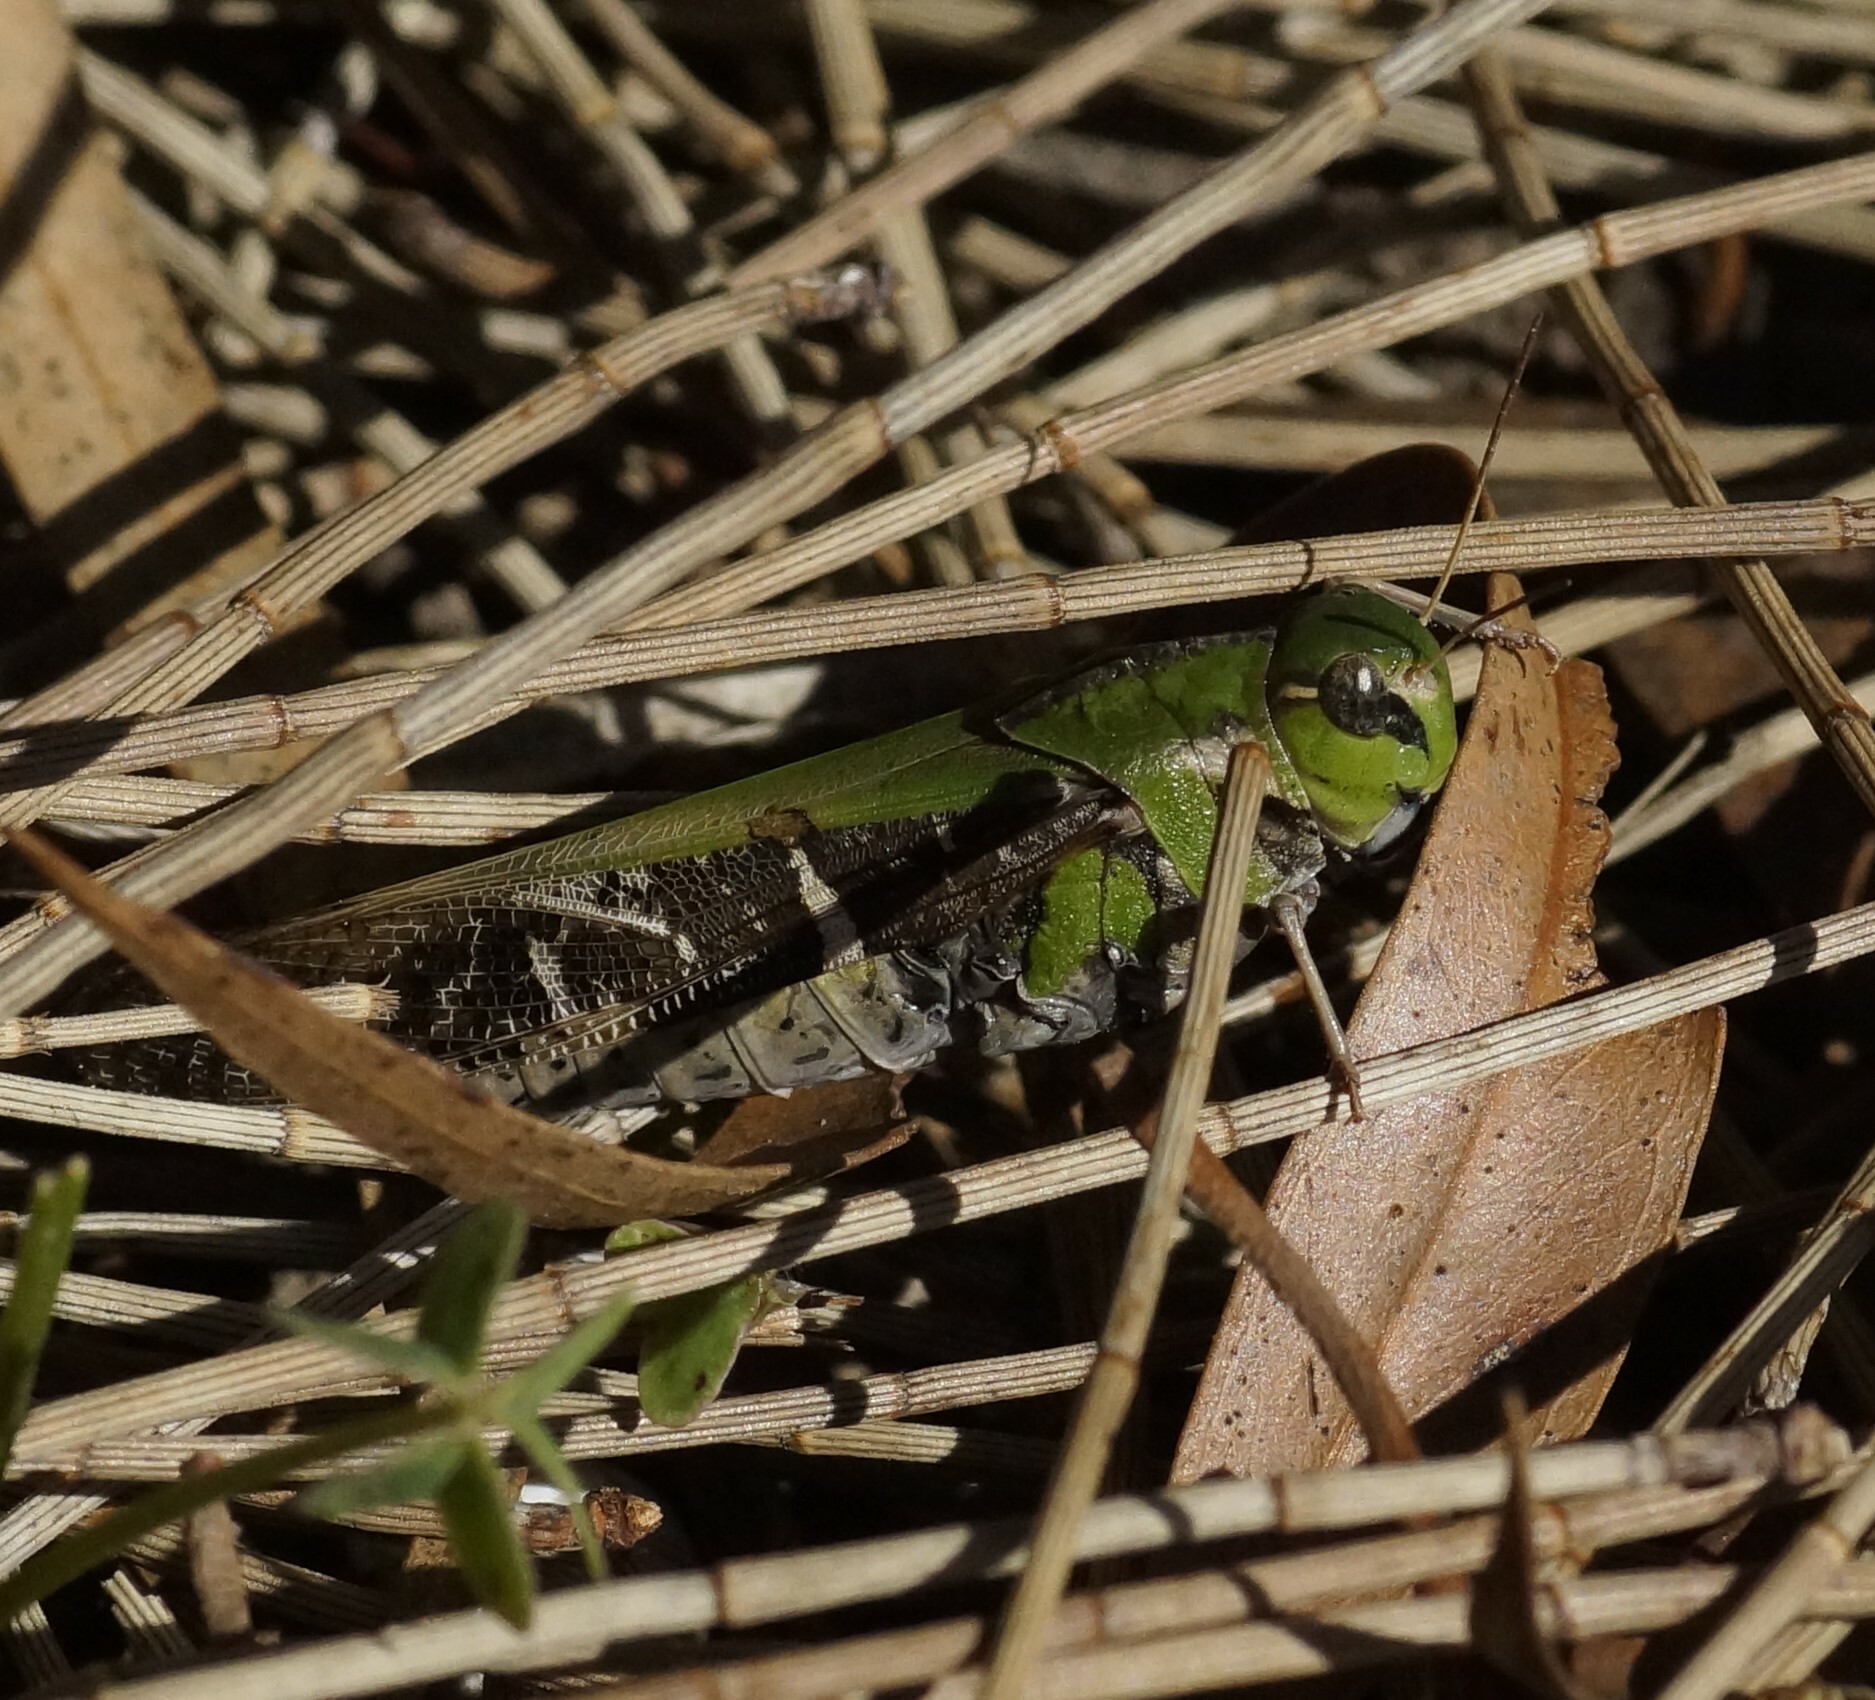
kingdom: Animalia
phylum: Arthropoda
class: Insecta
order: Orthoptera
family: Acrididae
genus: Gastrimargus
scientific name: Gastrimargus musicus
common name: Yellow-winged locust
